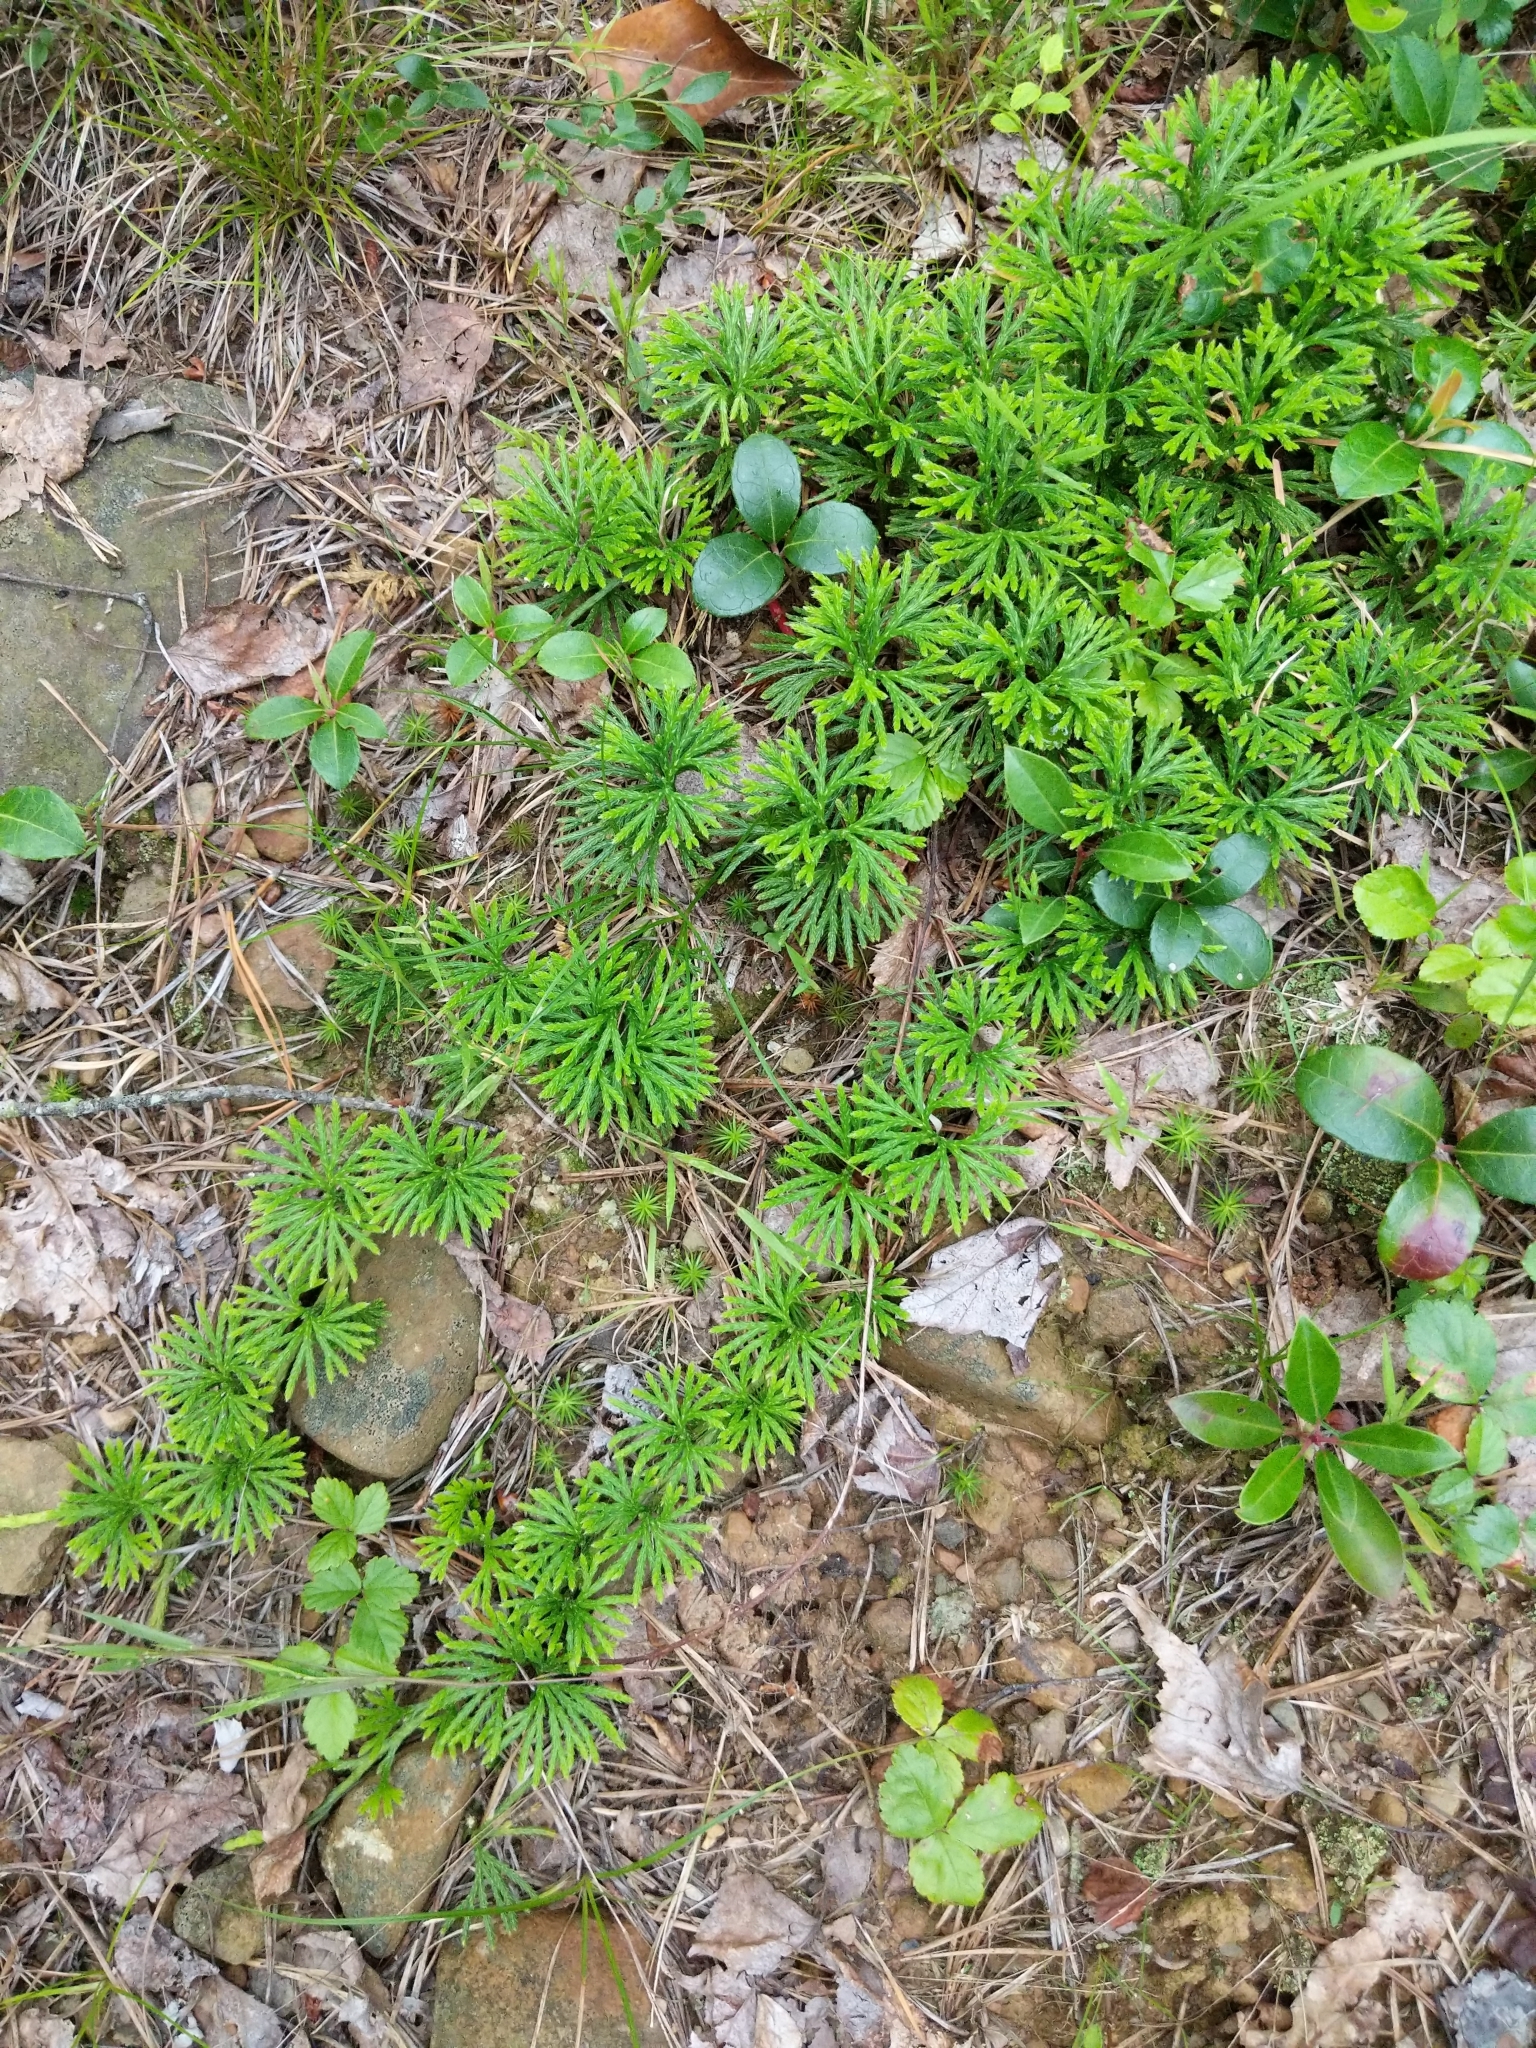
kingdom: Plantae
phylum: Tracheophyta
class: Lycopodiopsida
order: Lycopodiales
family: Lycopodiaceae
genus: Diphasiastrum
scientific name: Diphasiastrum digitatum
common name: Southern running-pine
